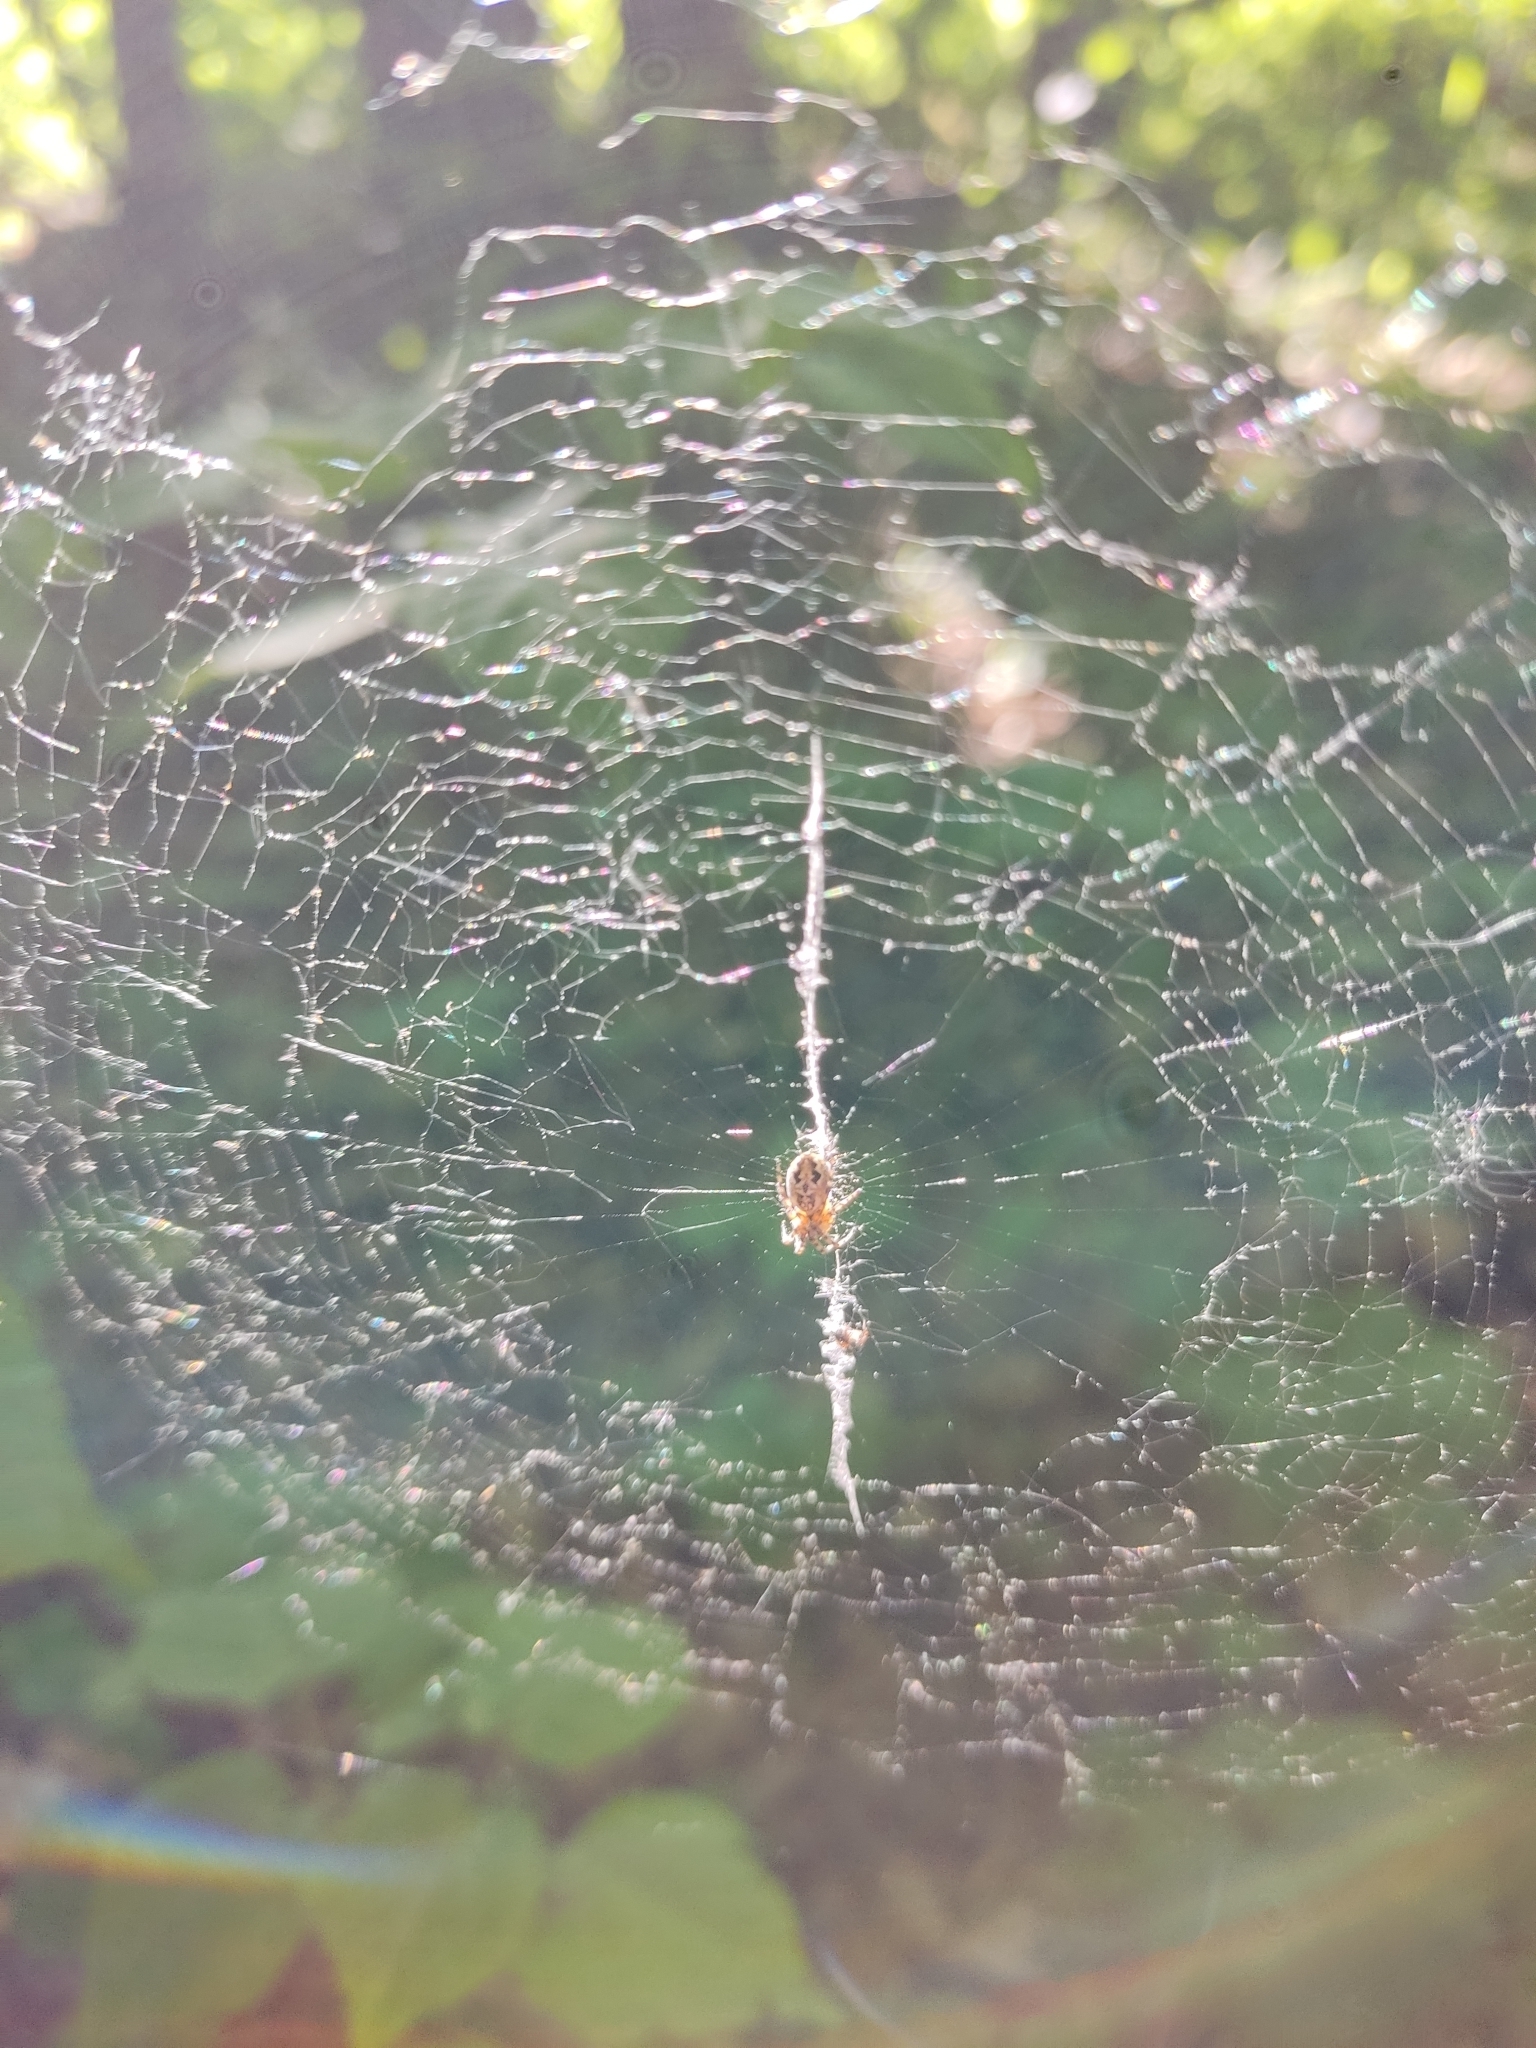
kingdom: Animalia
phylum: Arthropoda
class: Arachnida
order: Araneae
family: Araneidae
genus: Cyclosa
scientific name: Cyclosa conica
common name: Conical trashline orbweaver
